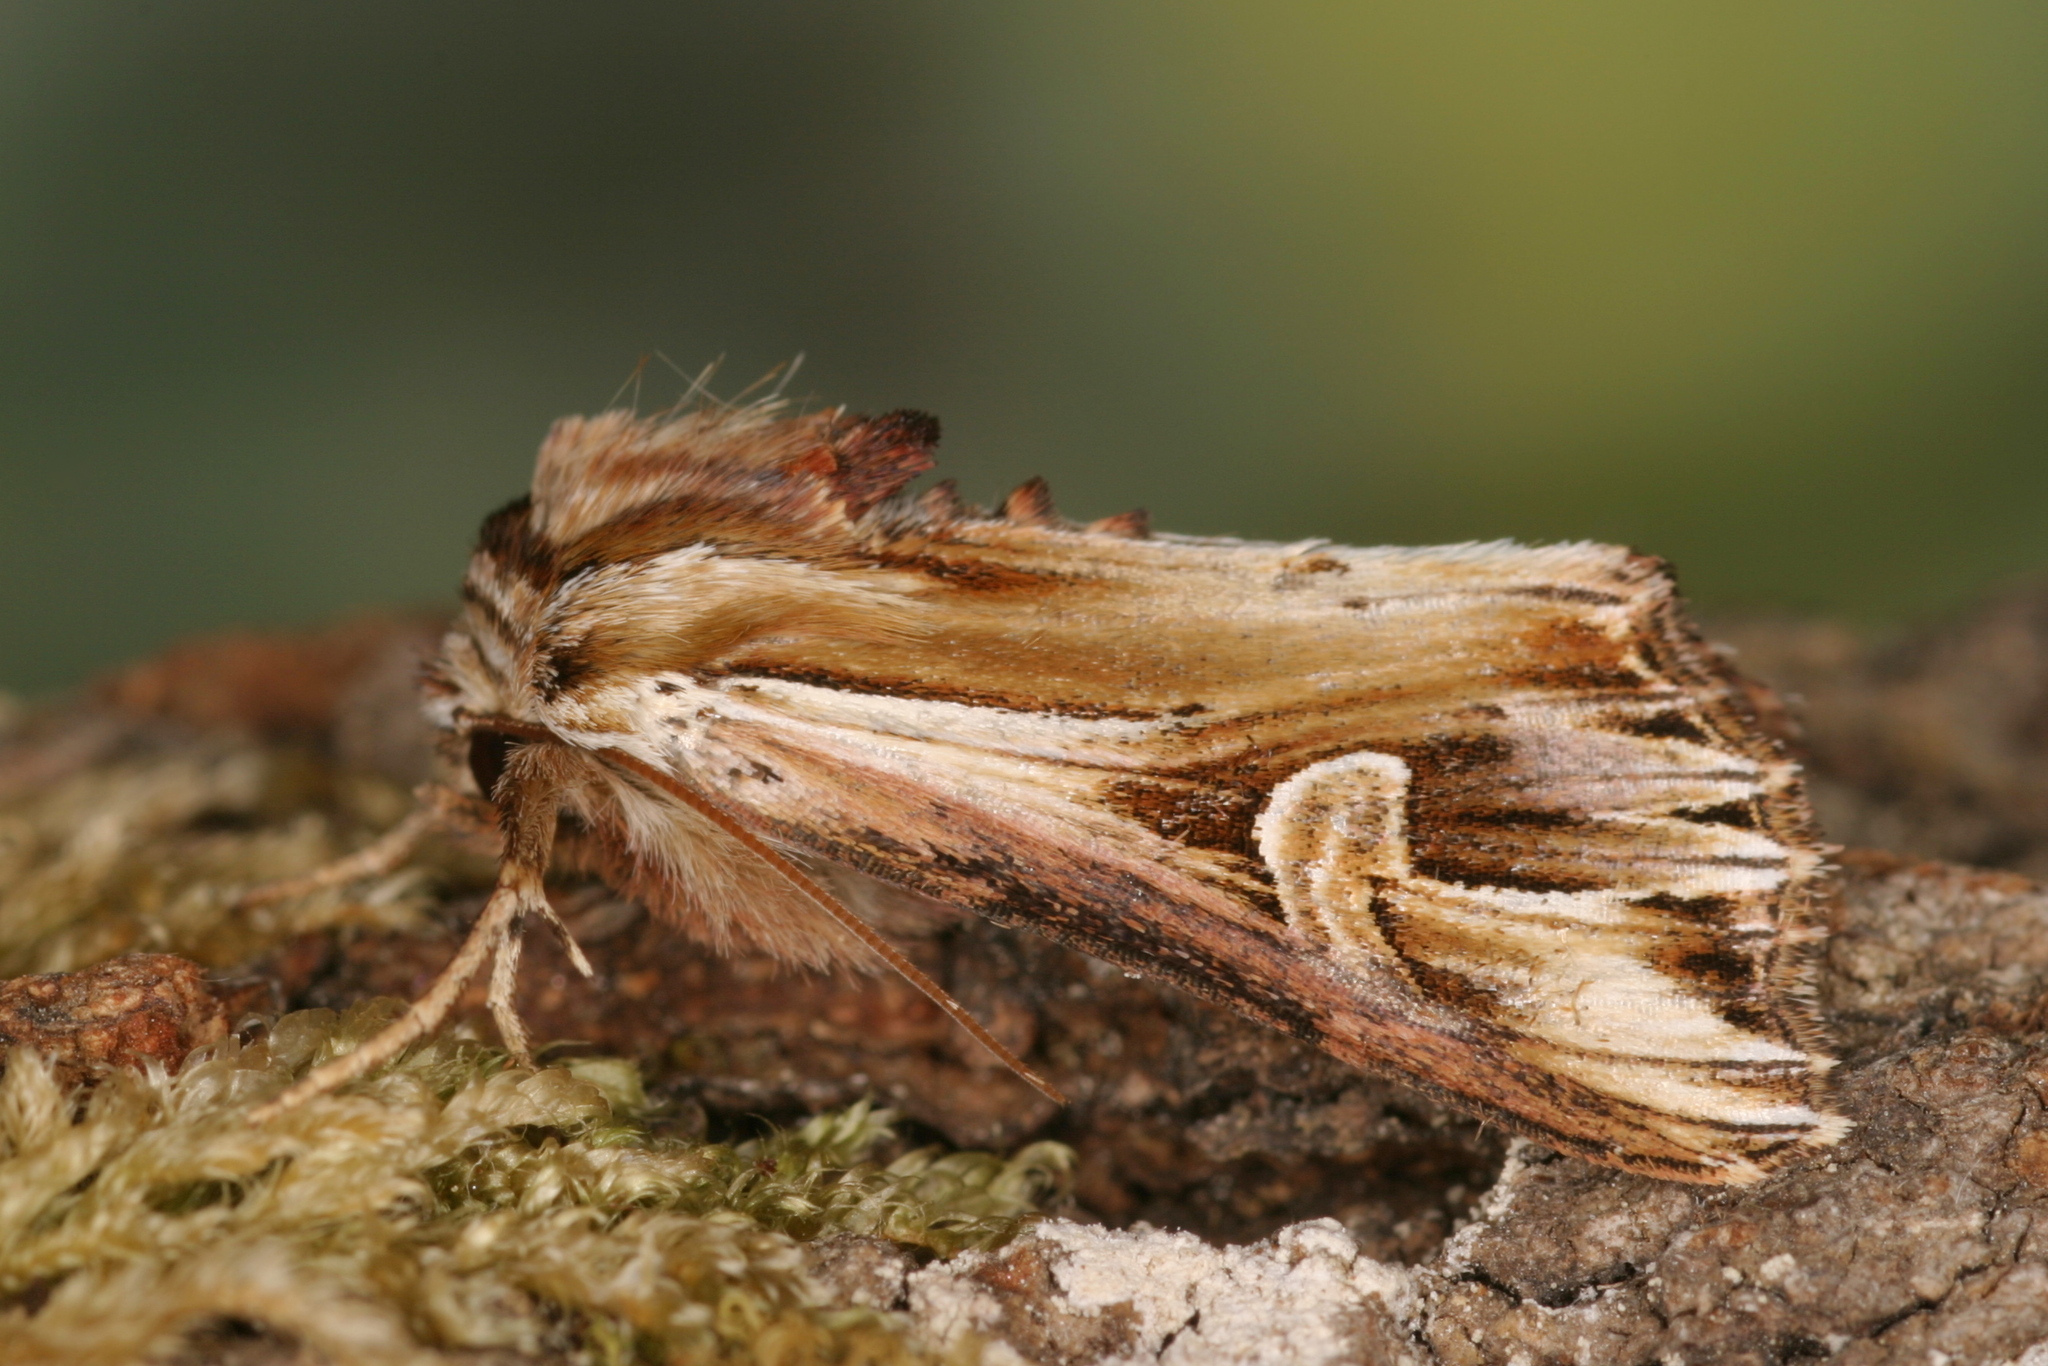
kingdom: Animalia
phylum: Arthropoda
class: Insecta
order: Lepidoptera
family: Noctuidae
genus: Actinotia
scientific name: Actinotia polyodon
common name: Purple cloud
